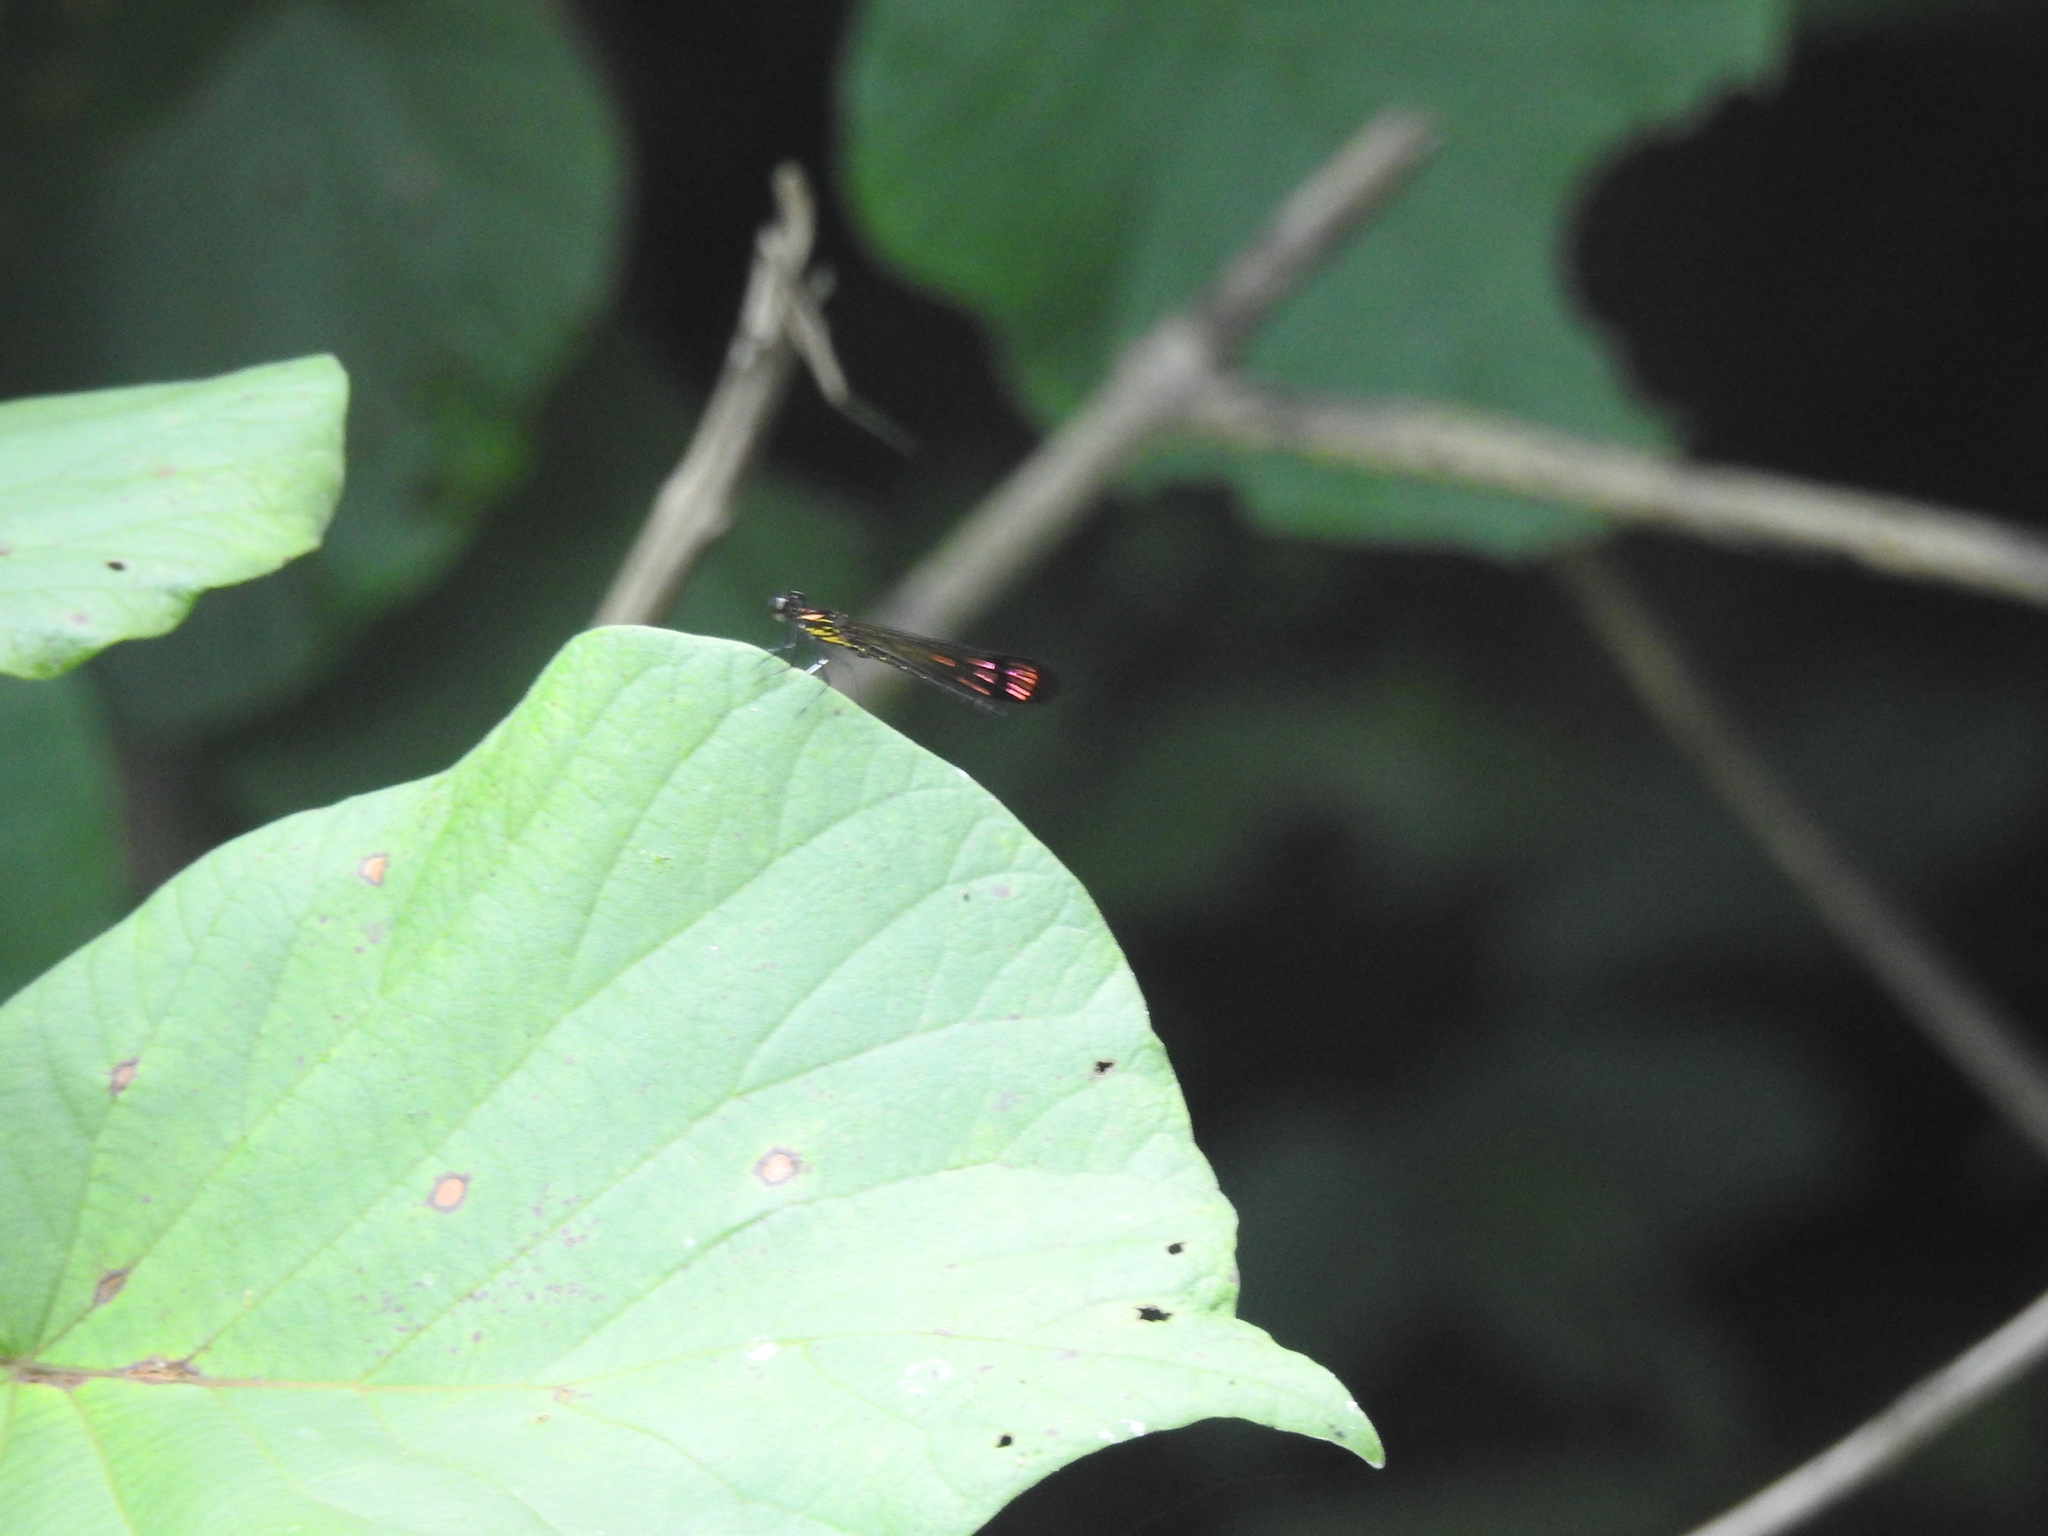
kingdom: Animalia
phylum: Arthropoda
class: Insecta
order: Odonata
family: Chlorocyphidae
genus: Heliocypha
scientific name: Heliocypha bisignata
